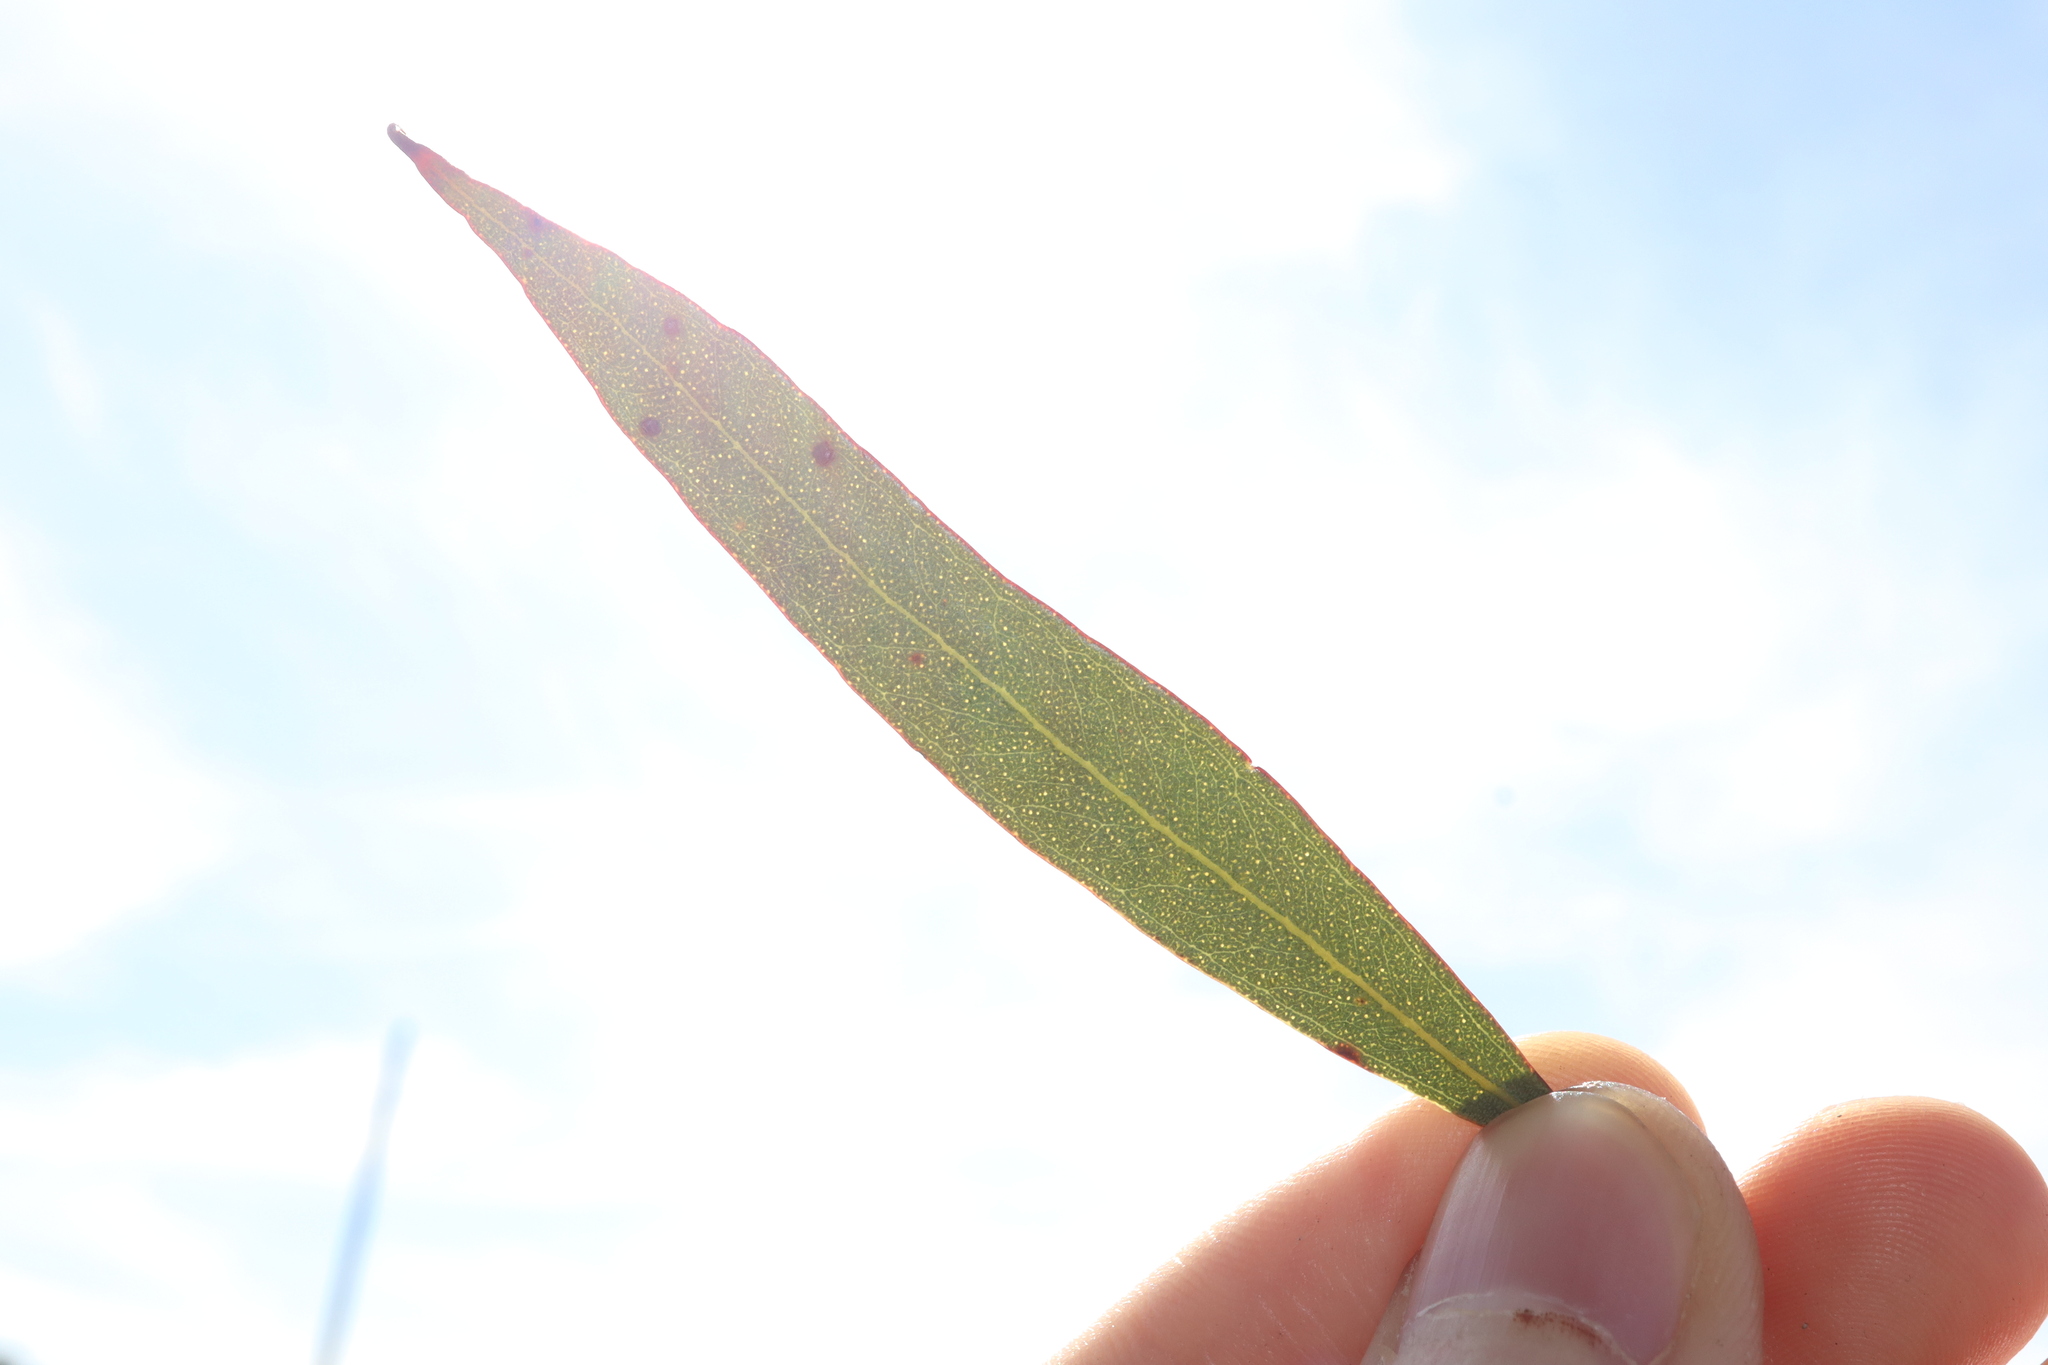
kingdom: Plantae
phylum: Tracheophyta
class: Magnoliopsida
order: Myrtales
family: Myrtaceae
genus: Eucalyptus
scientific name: Eucalyptus uncinata
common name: Hooked-leaved mallee
